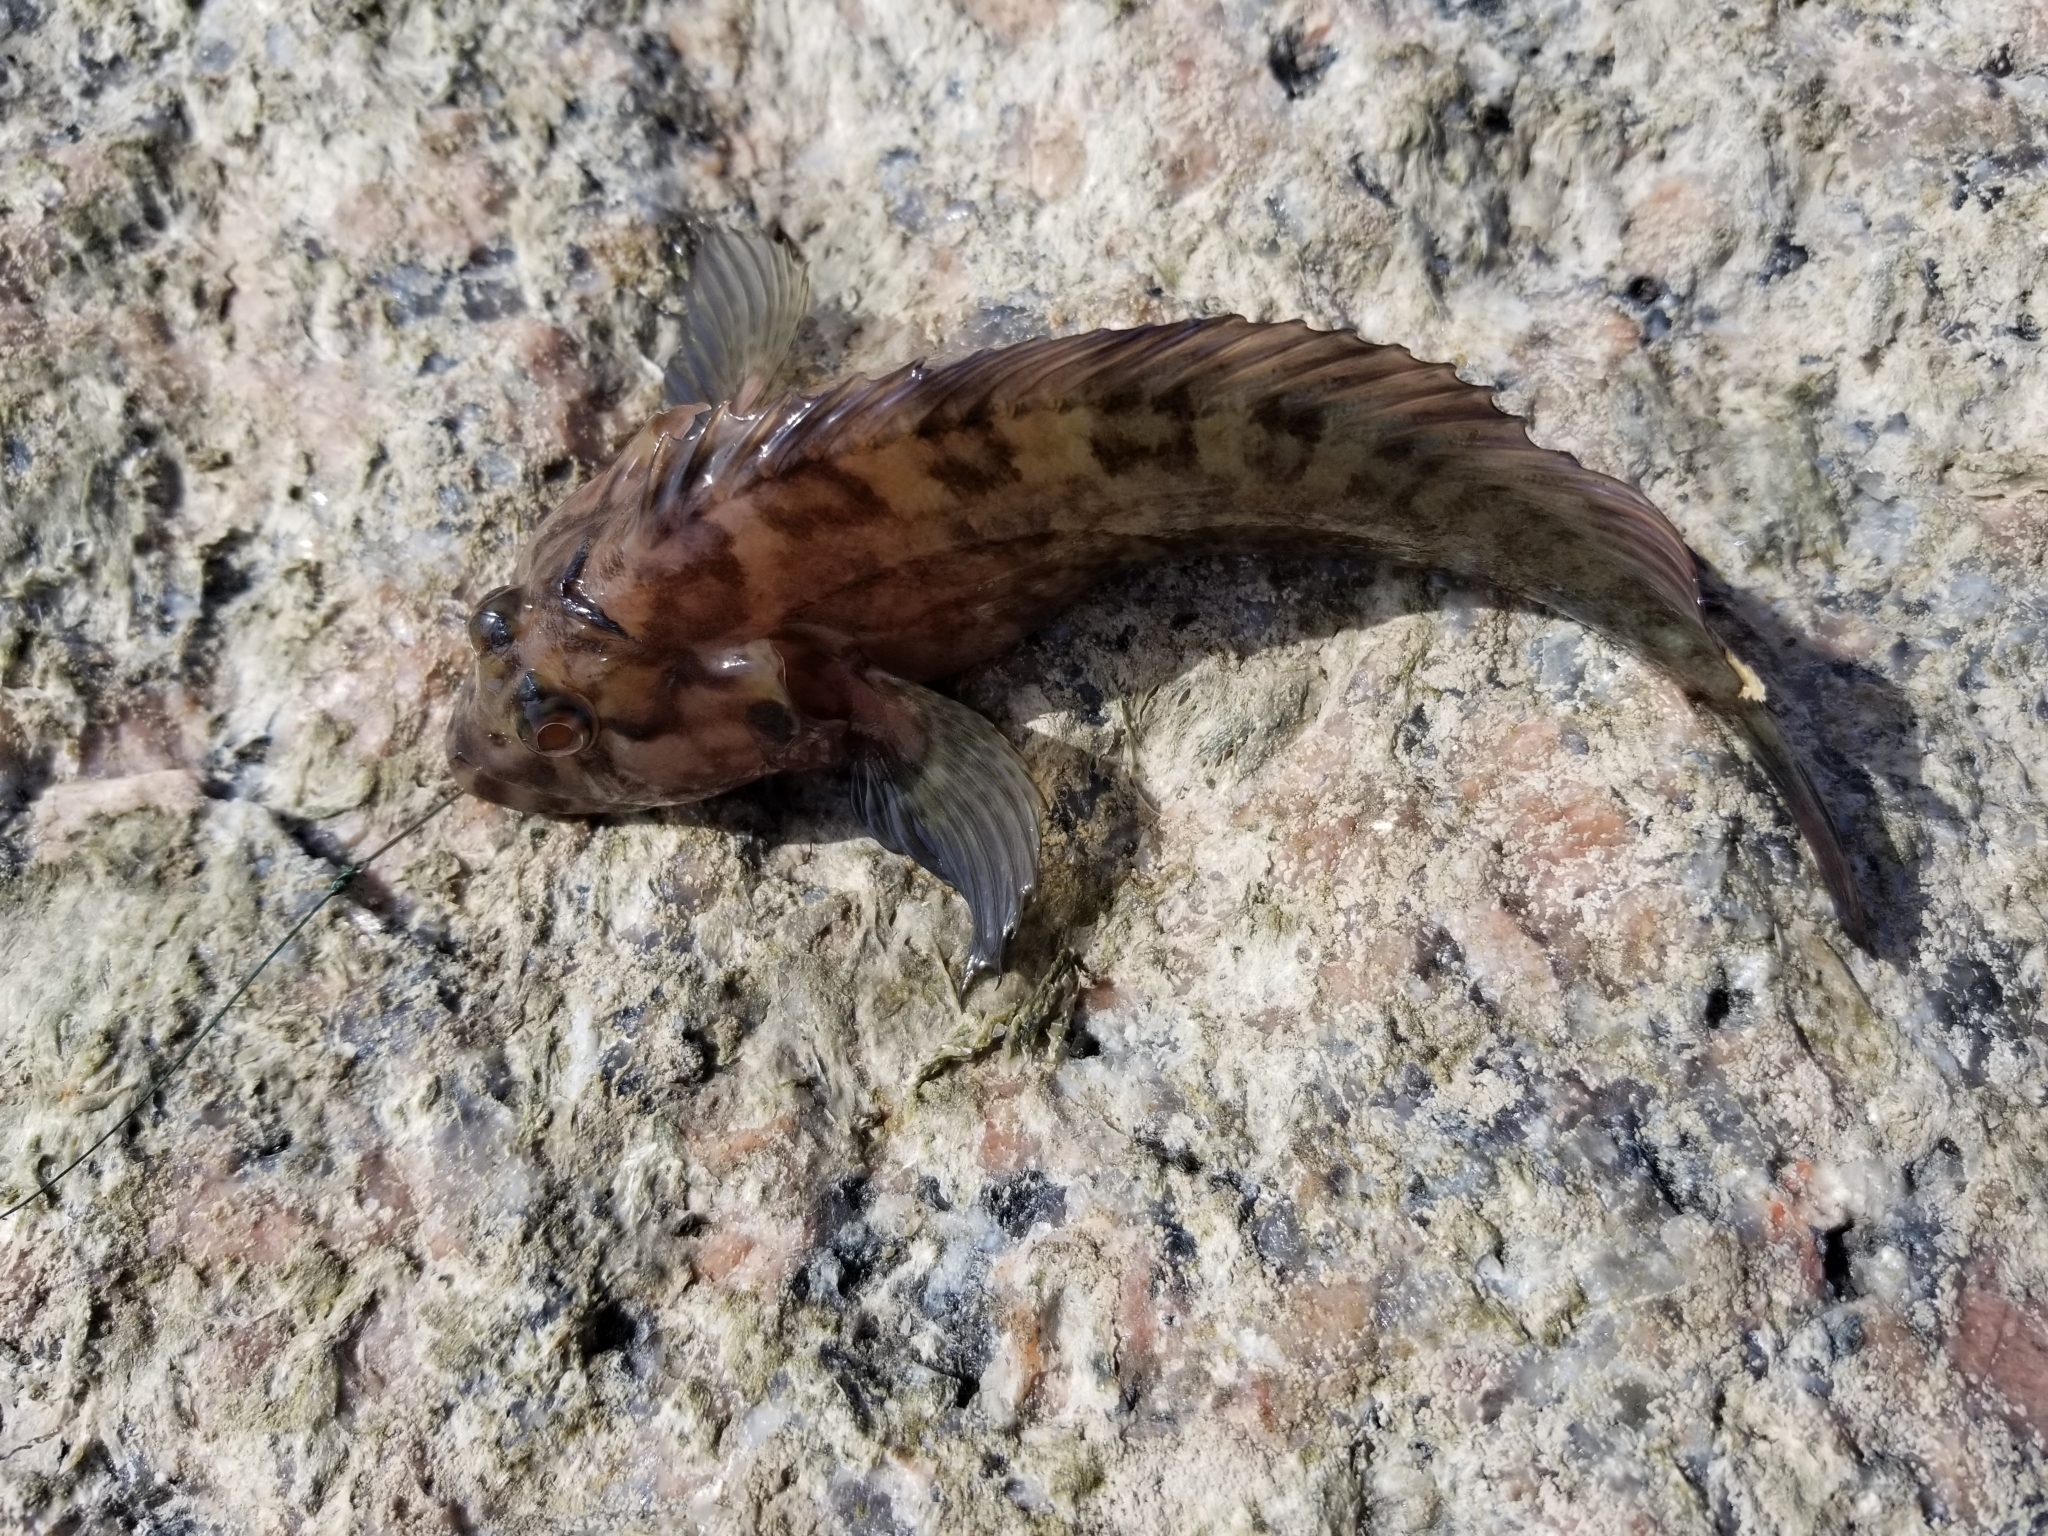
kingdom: Animalia
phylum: Chordata
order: Perciformes
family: Labrisomidae
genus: Labrisomus
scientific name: Labrisomus nuchipinnis
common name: Hairy blenny
